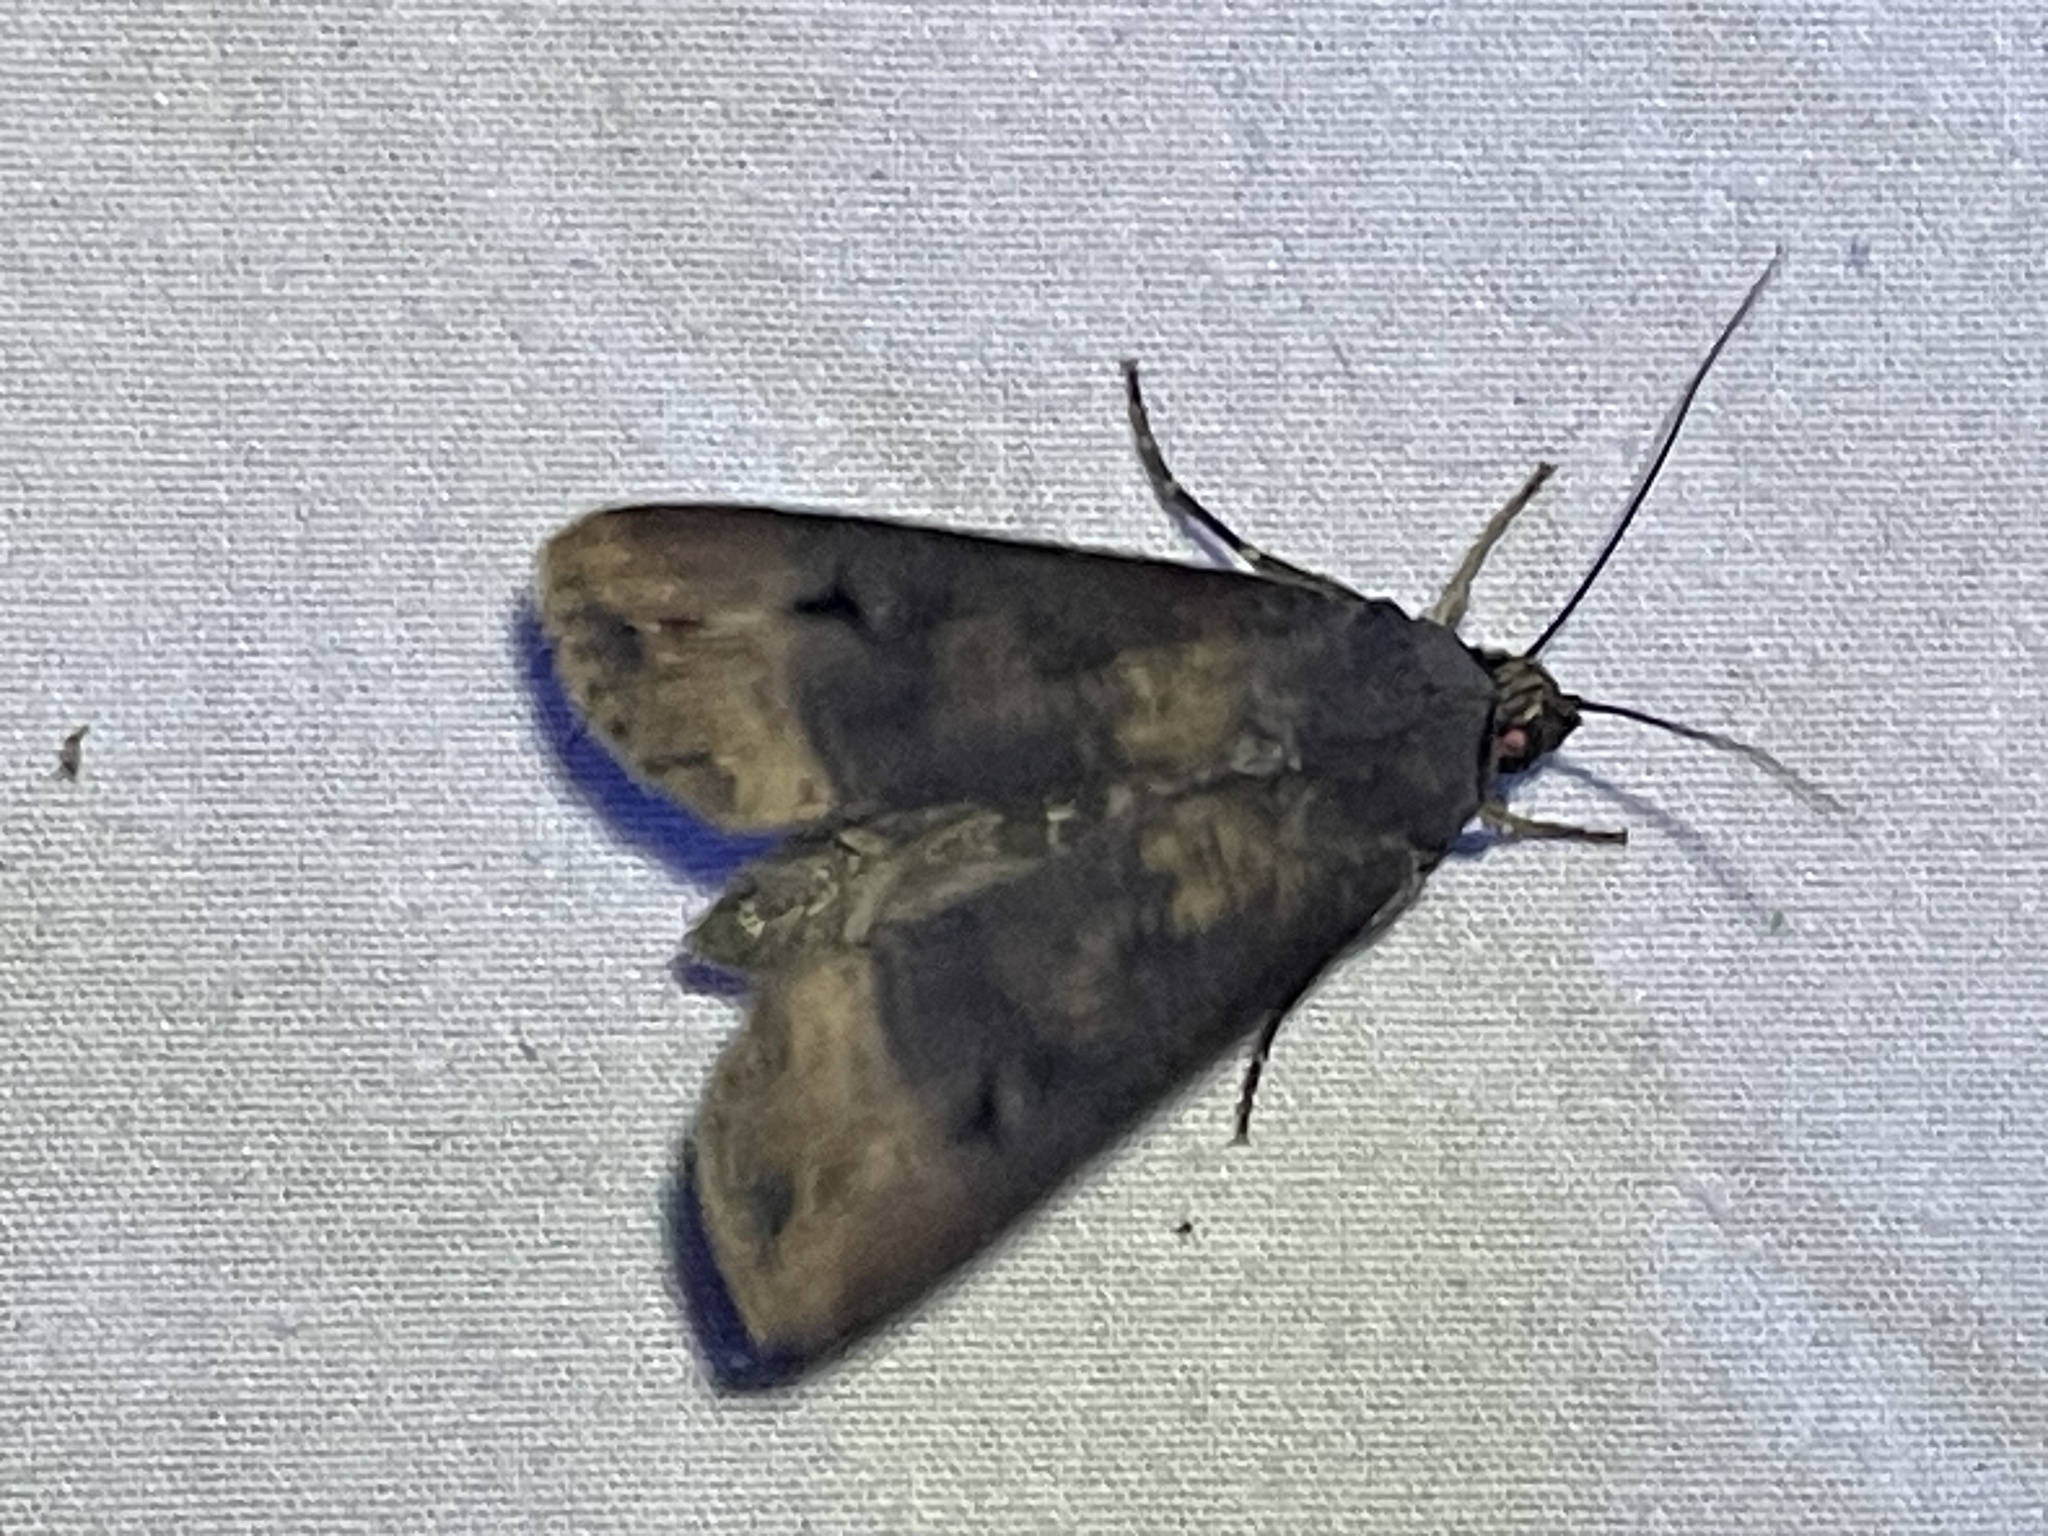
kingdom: Animalia
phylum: Arthropoda
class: Insecta
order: Lepidoptera
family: Noctuidae
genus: Agrotis
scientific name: Agrotis ipsilon
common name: Dark sword-grass
